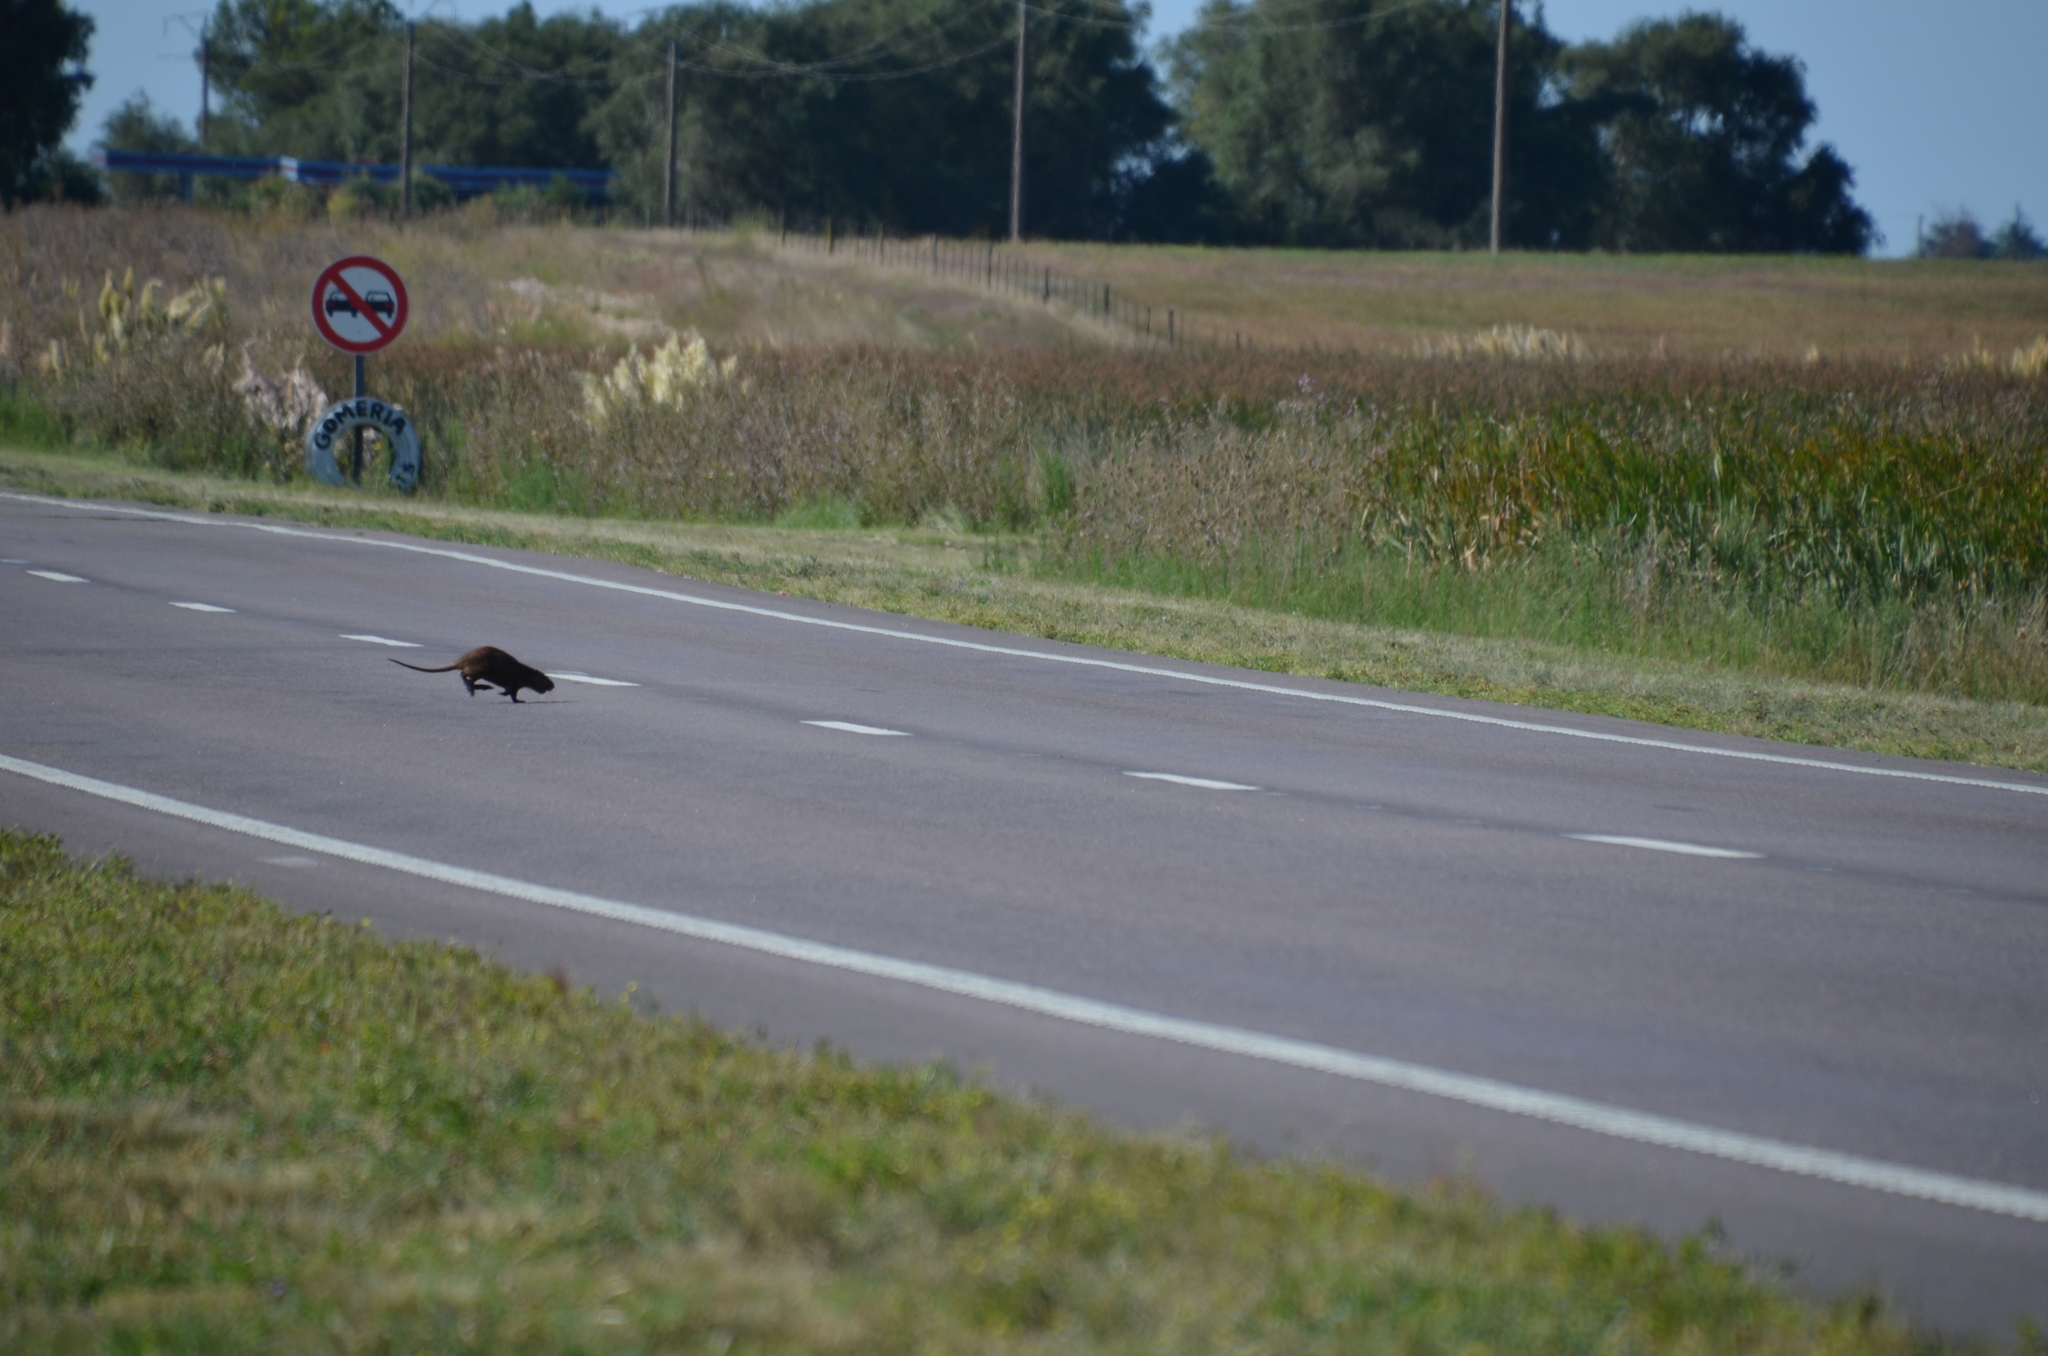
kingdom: Animalia
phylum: Chordata
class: Mammalia
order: Rodentia
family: Myocastoridae
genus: Myocastor
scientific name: Myocastor coypus
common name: Coypu
